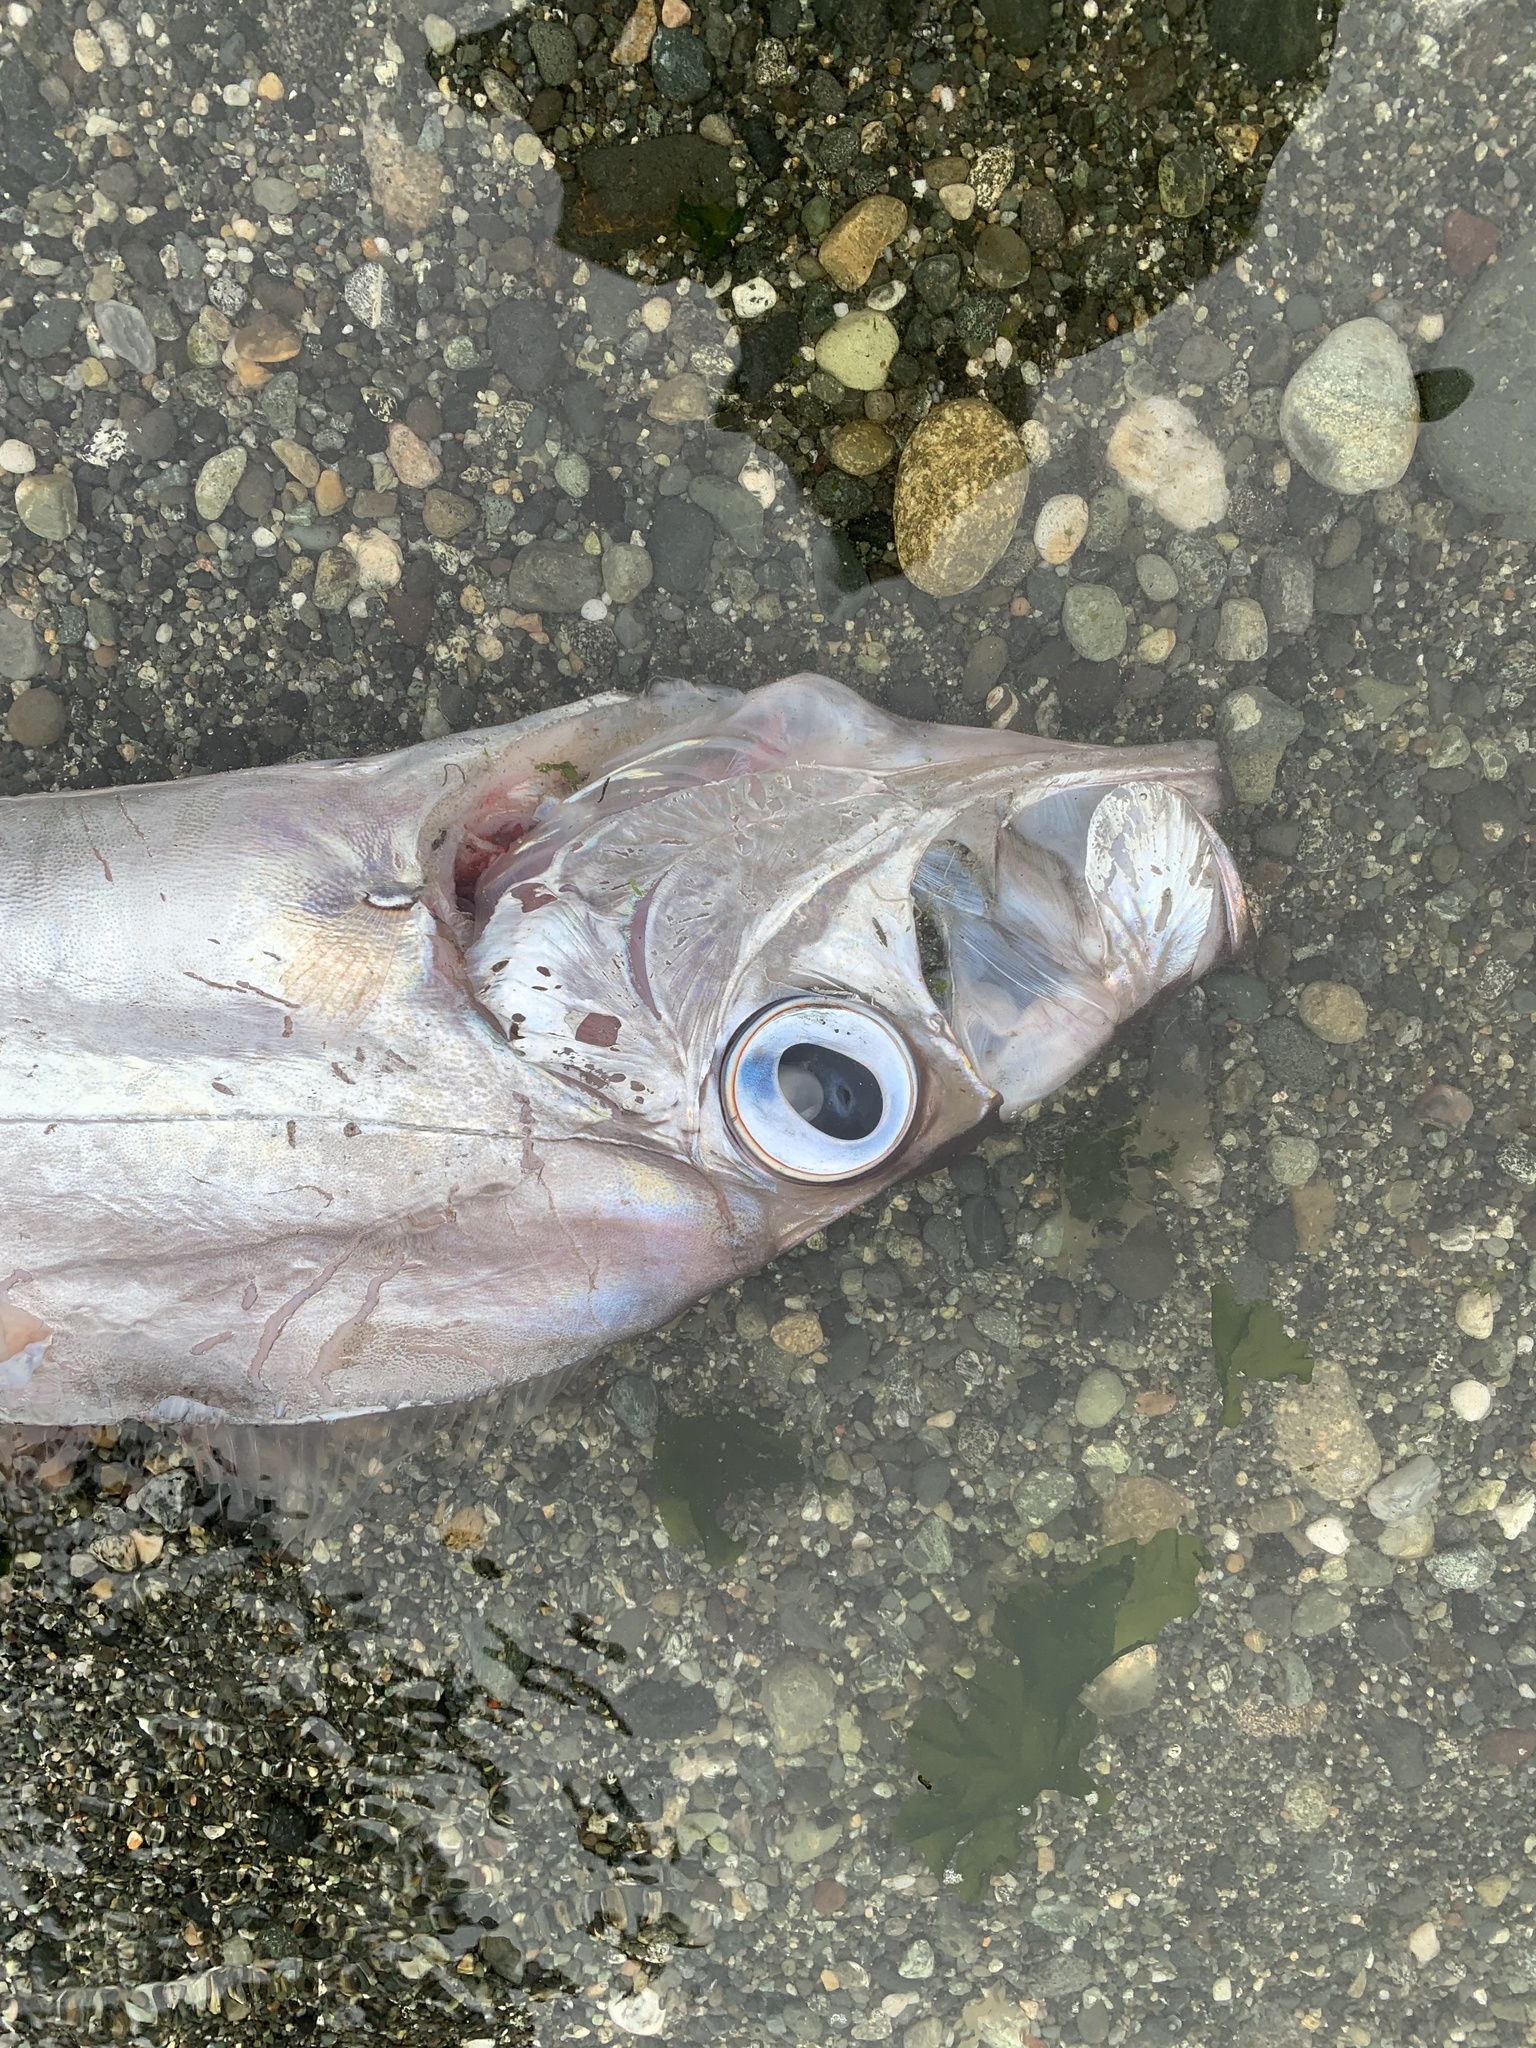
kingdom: Animalia
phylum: Chordata
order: Lampriformes
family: Trachipteridae
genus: Trachipterus
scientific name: Trachipterus altivelis
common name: King-of-the-salmon
